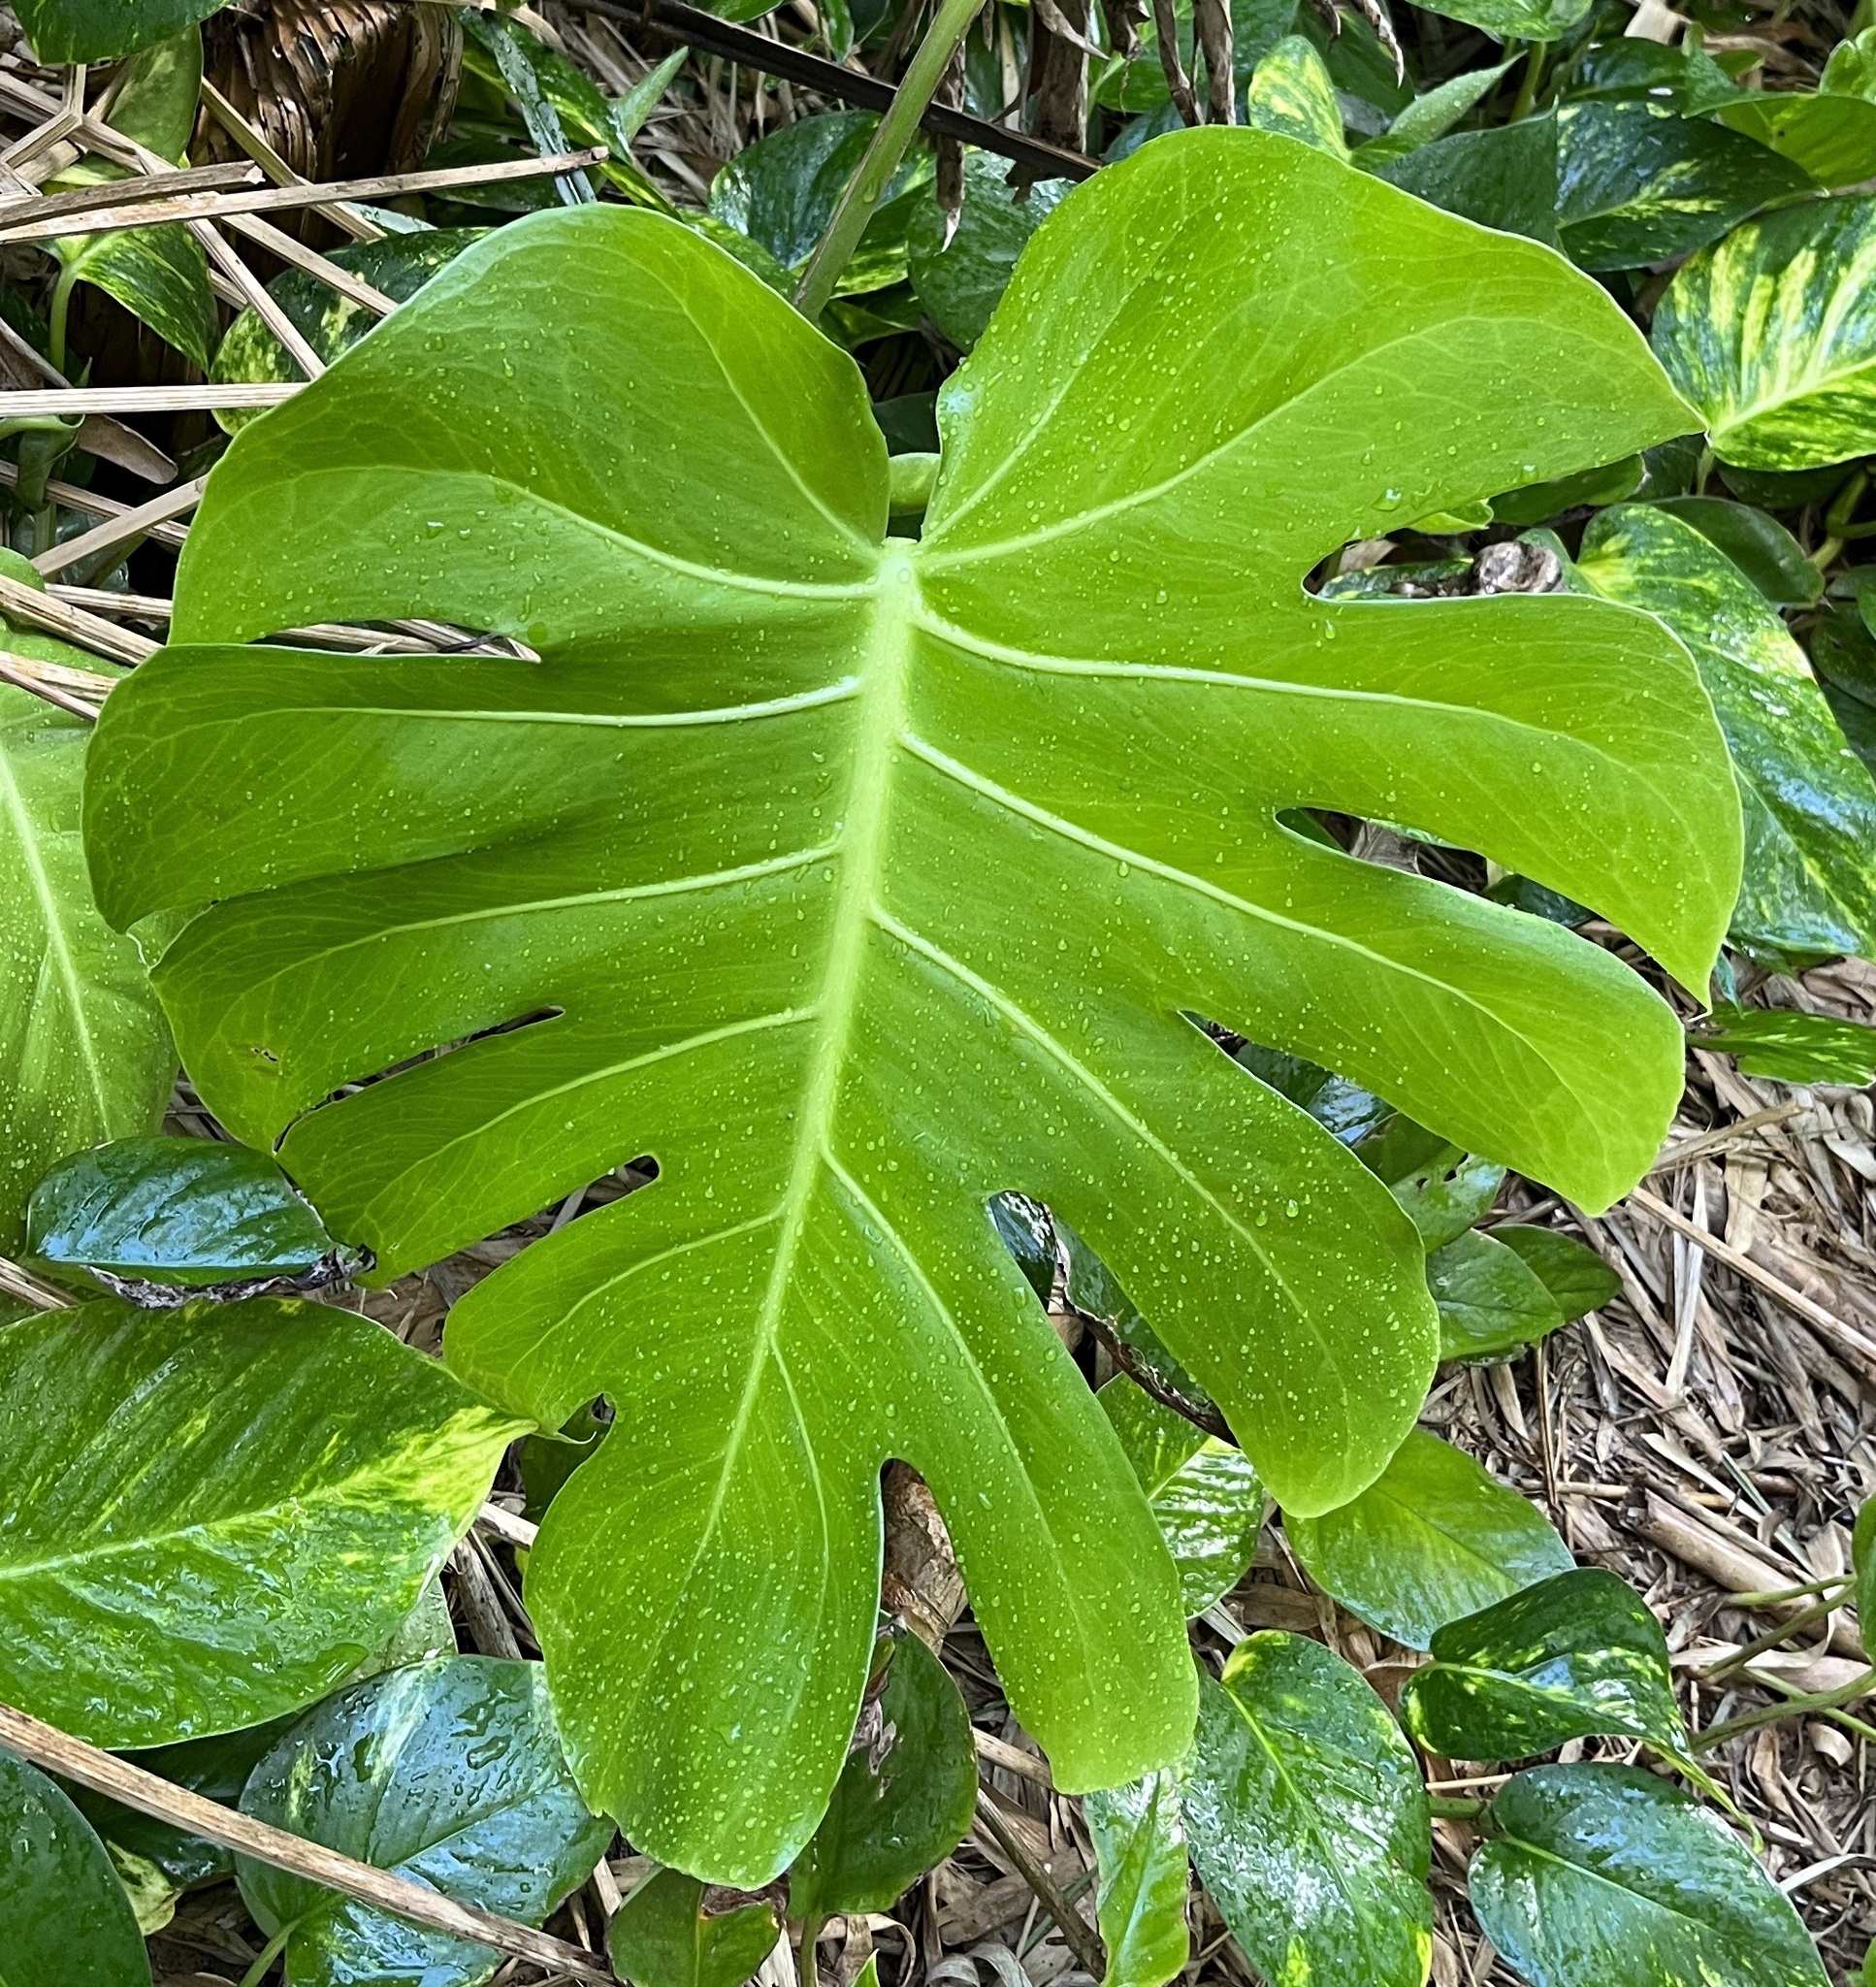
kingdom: Plantae
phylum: Tracheophyta
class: Liliopsida
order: Alismatales
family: Araceae
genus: Monstera
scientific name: Monstera deliciosa
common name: Cut-leaf-philodendron
